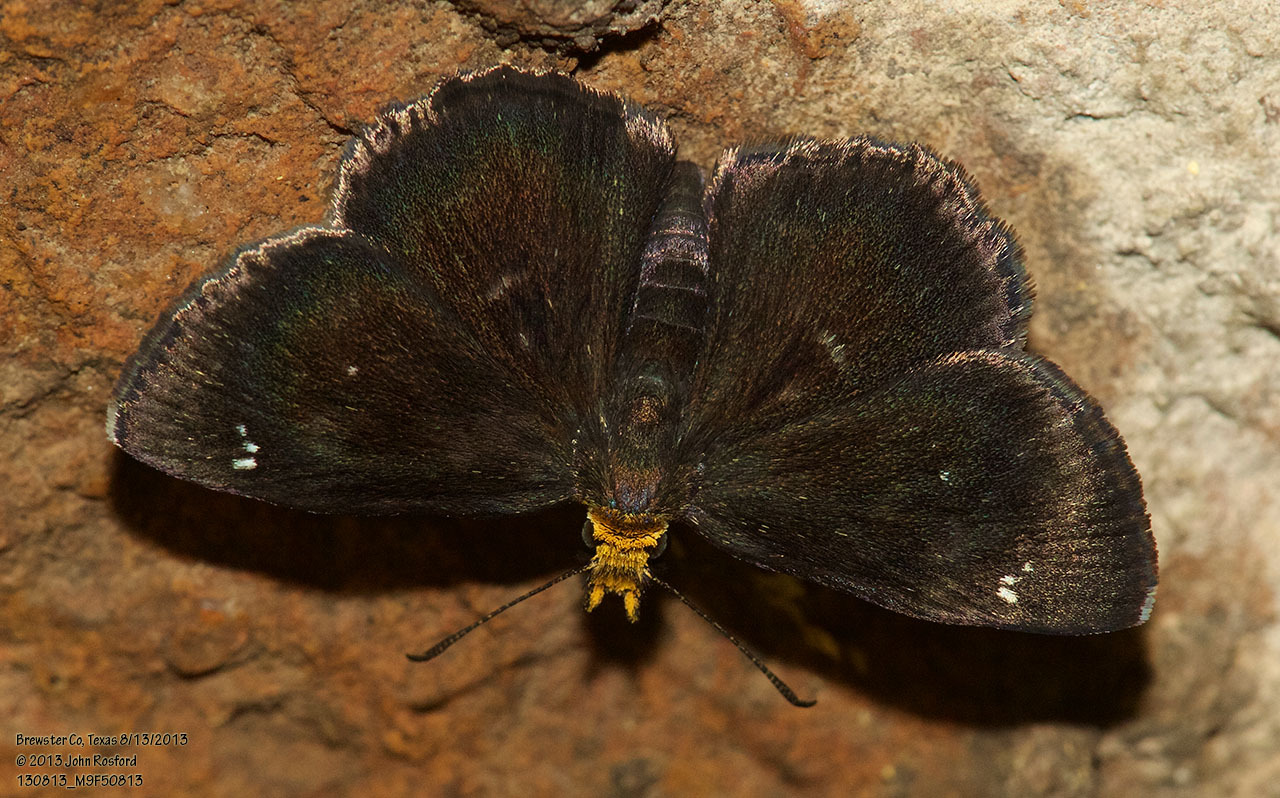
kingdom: Animalia
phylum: Arthropoda
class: Insecta
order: Lepidoptera
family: Hesperiidae
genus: Staphylus
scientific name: Staphylus ceos
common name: Golden-headed scallopwing
